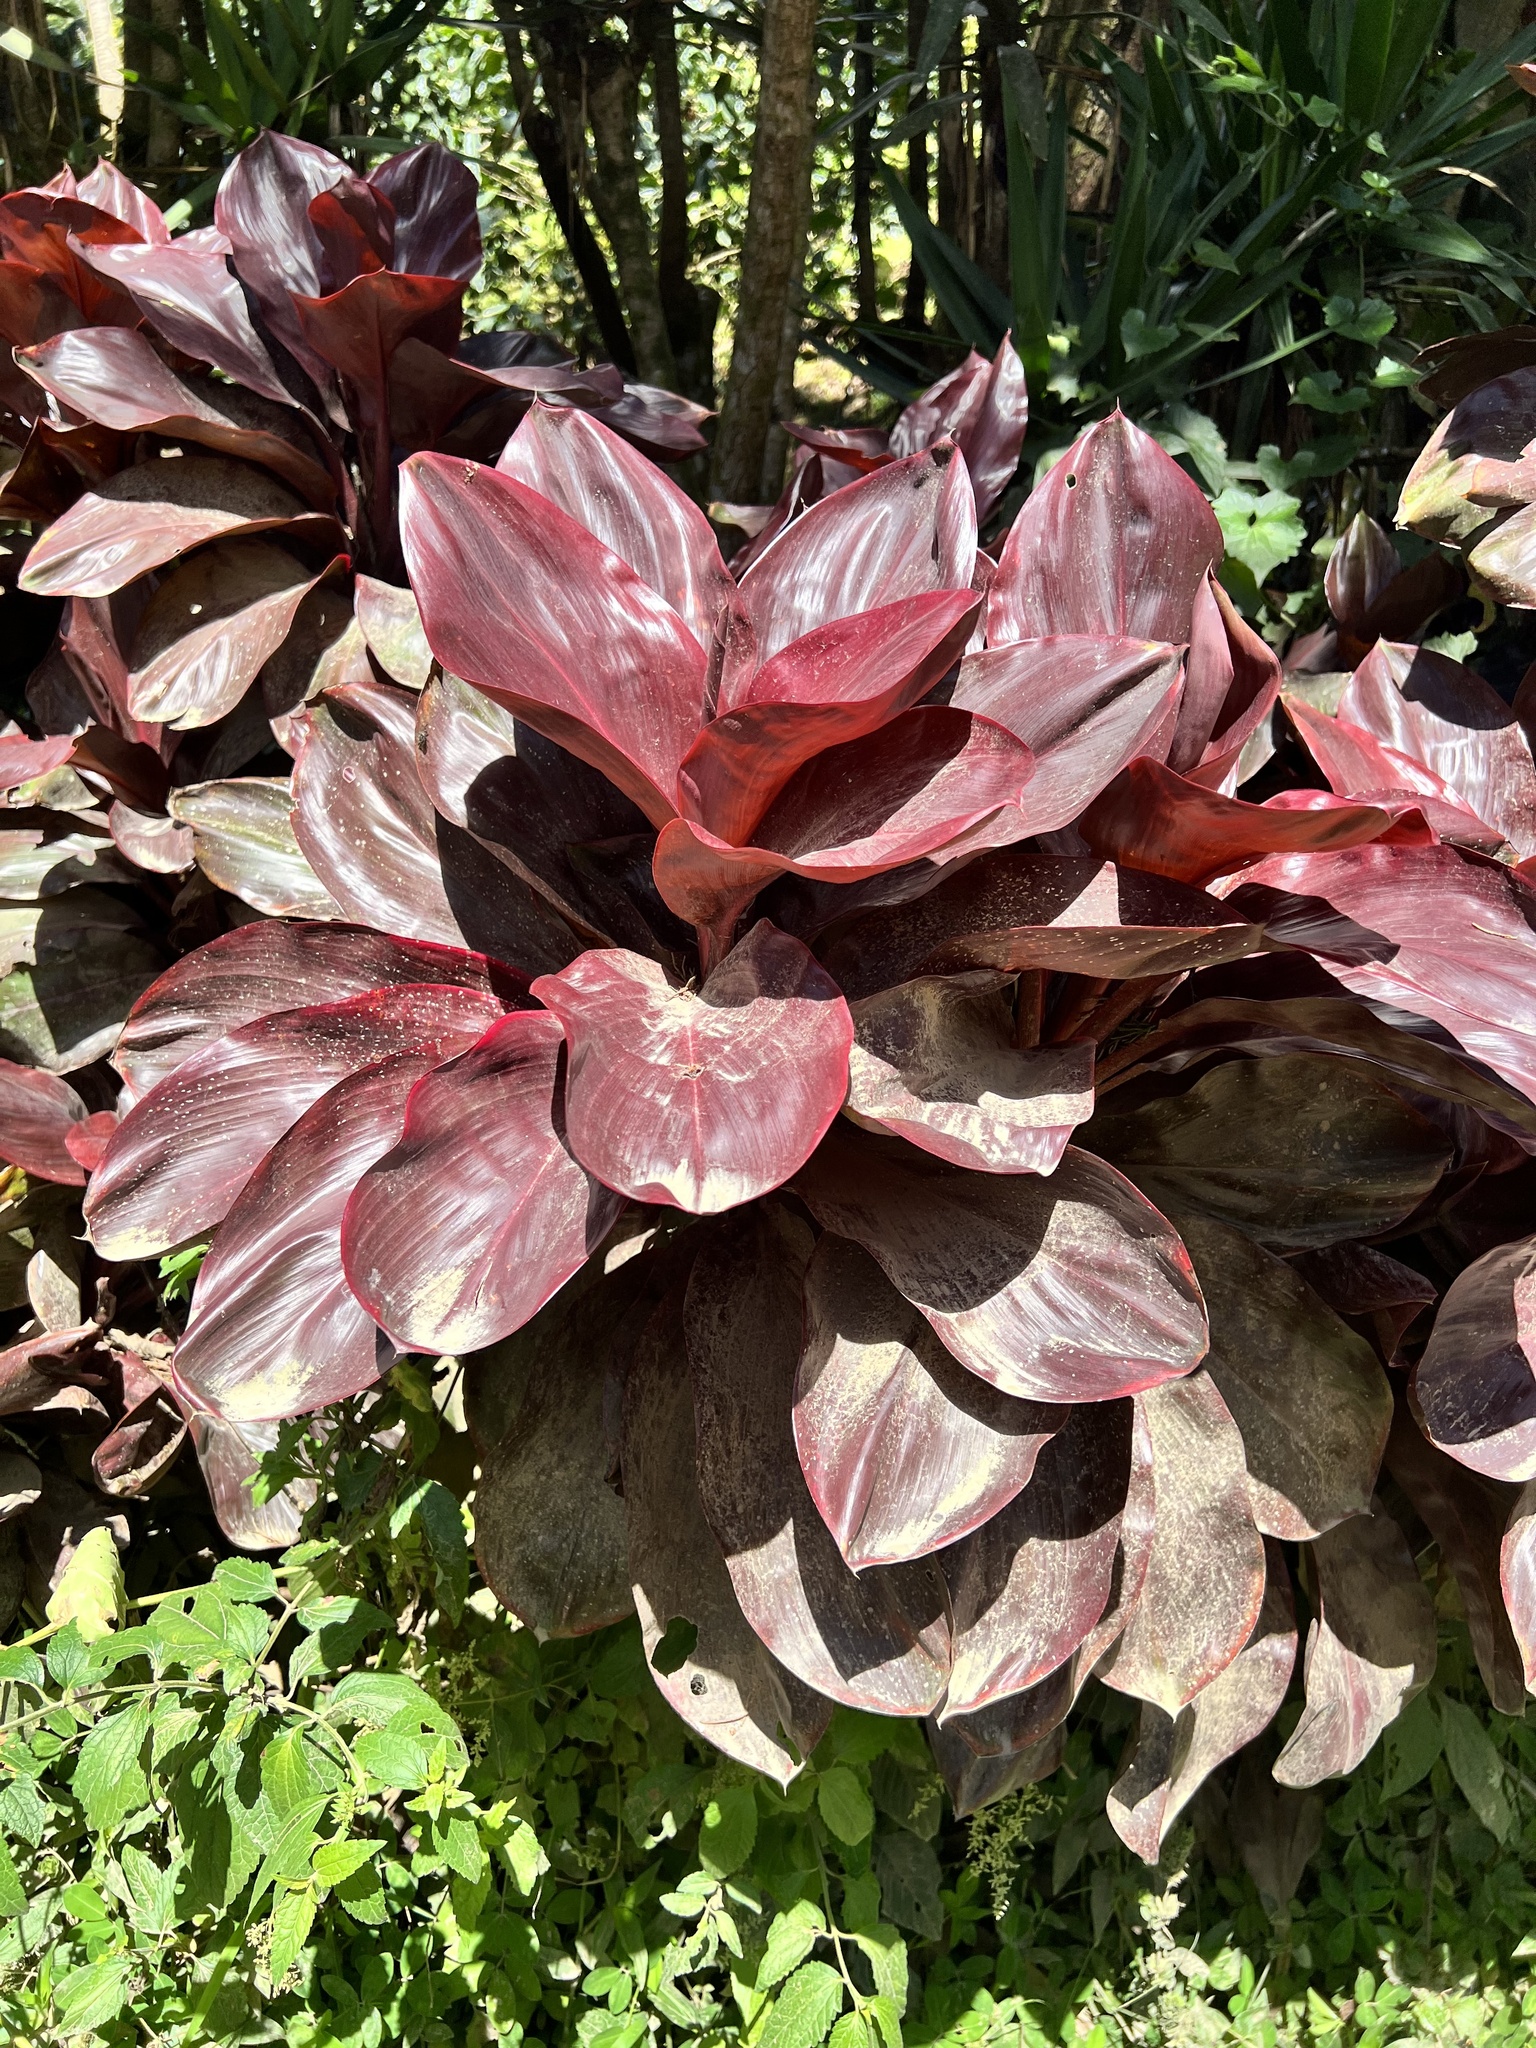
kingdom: Plantae
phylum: Tracheophyta
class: Liliopsida
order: Asparagales
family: Asparagaceae
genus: Cordyline
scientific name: Cordyline fruticosa
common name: Good-luck-plant
